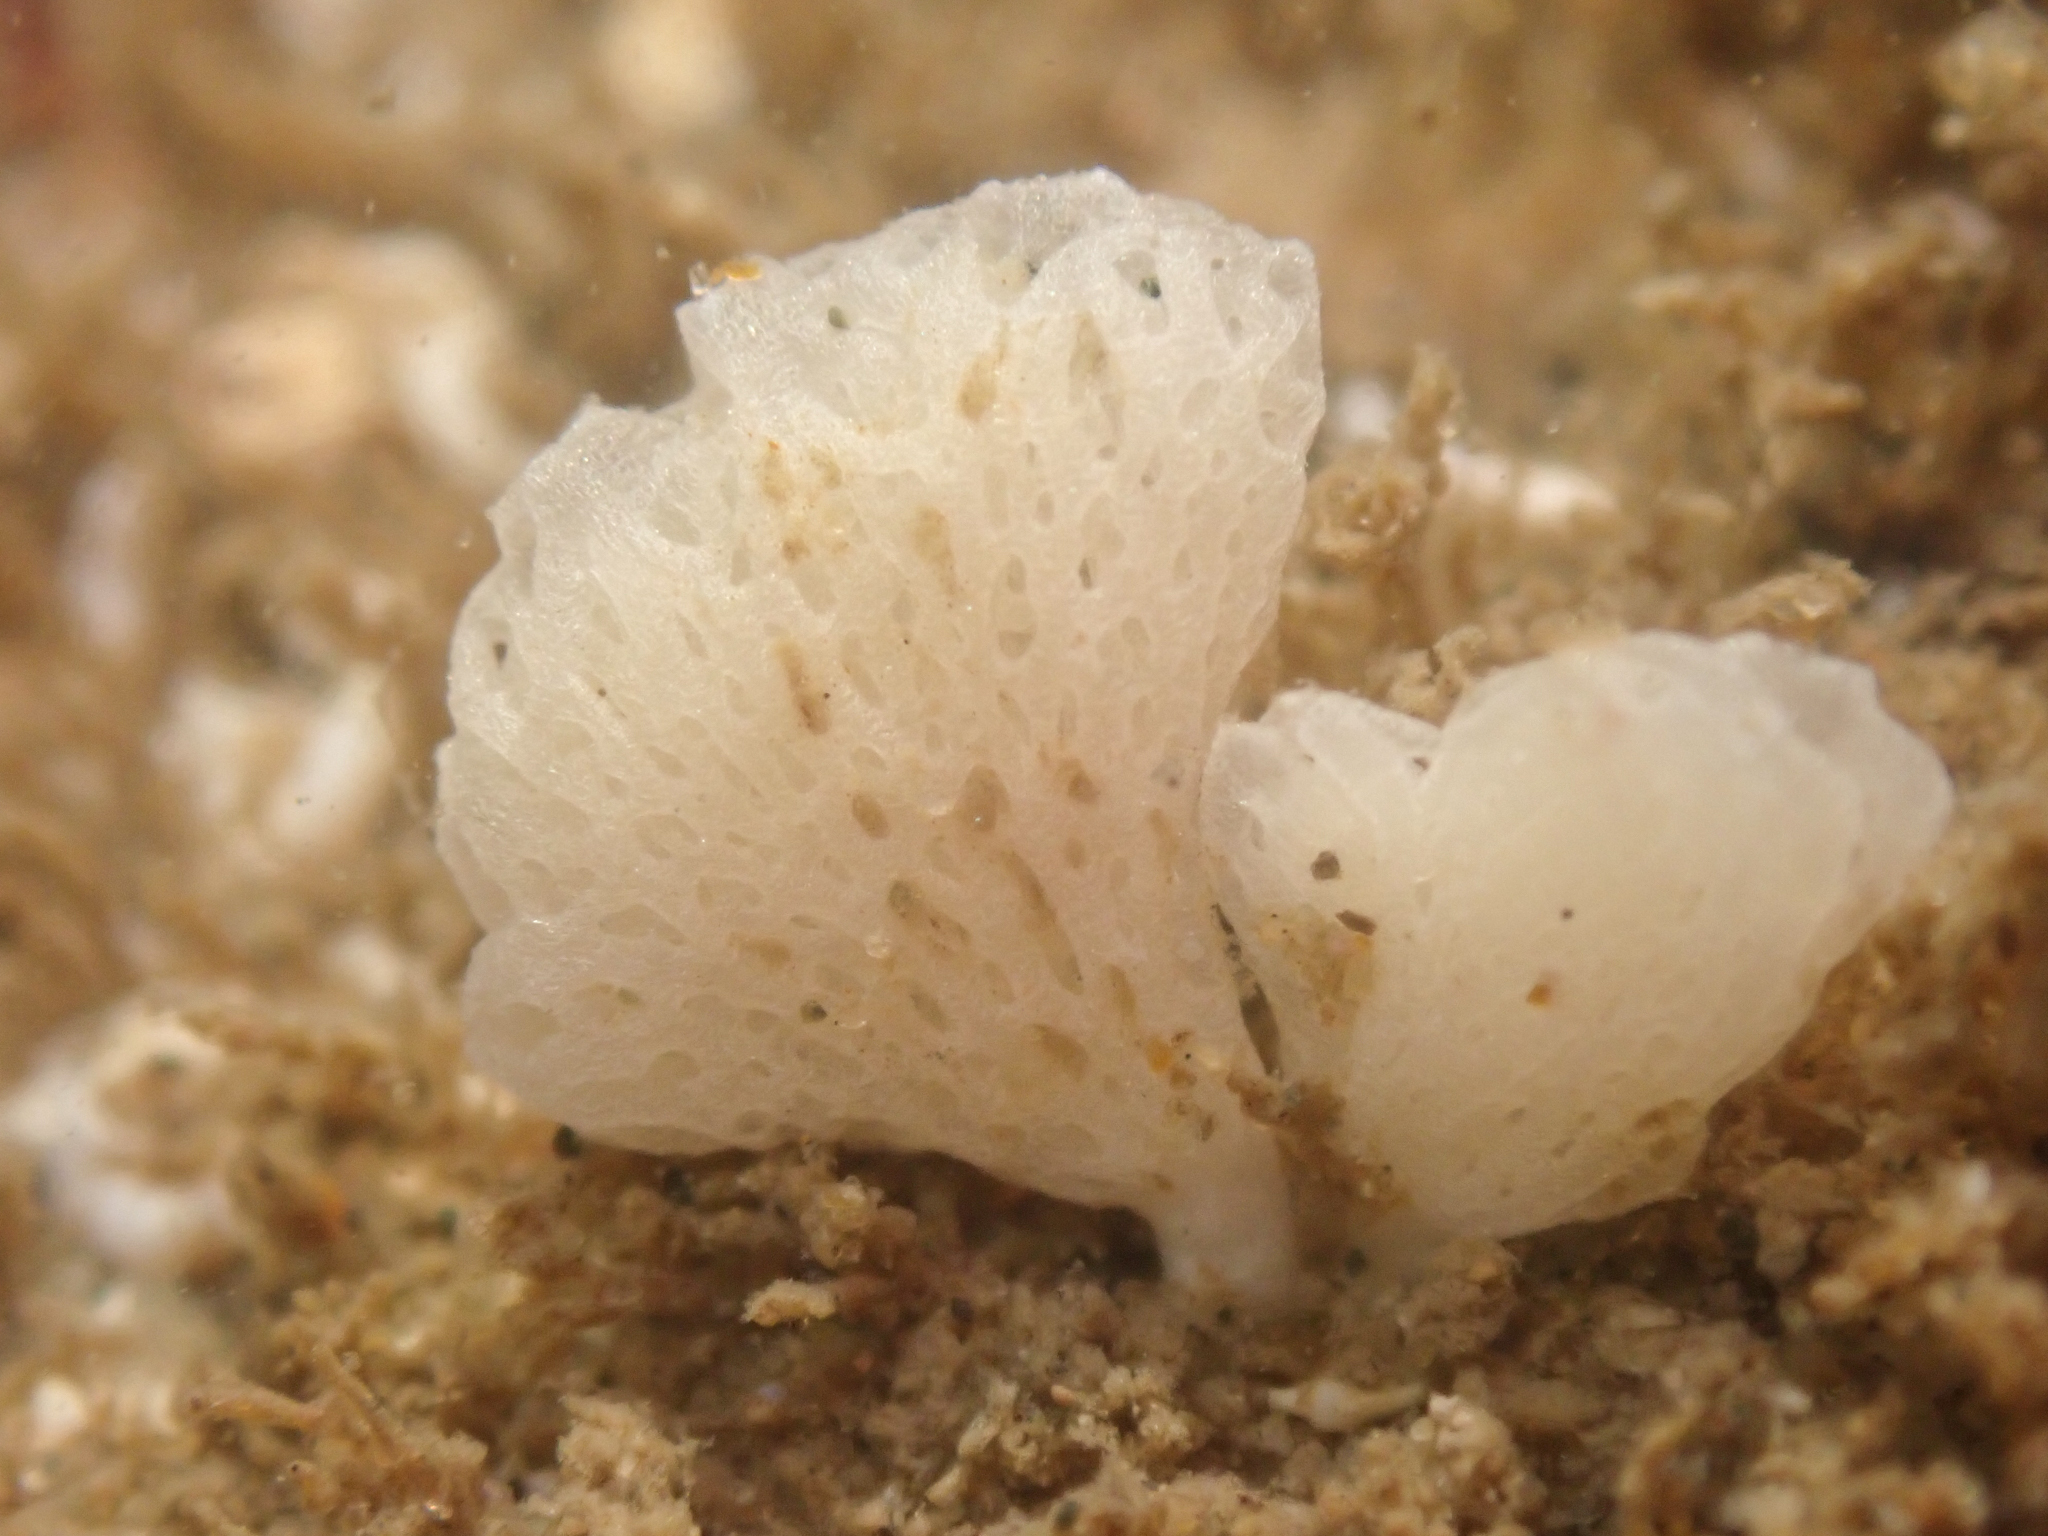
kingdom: Animalia
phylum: Porifera
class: Calcarea
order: Clathrinida
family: Clathrinidae
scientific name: Clathrinidae
